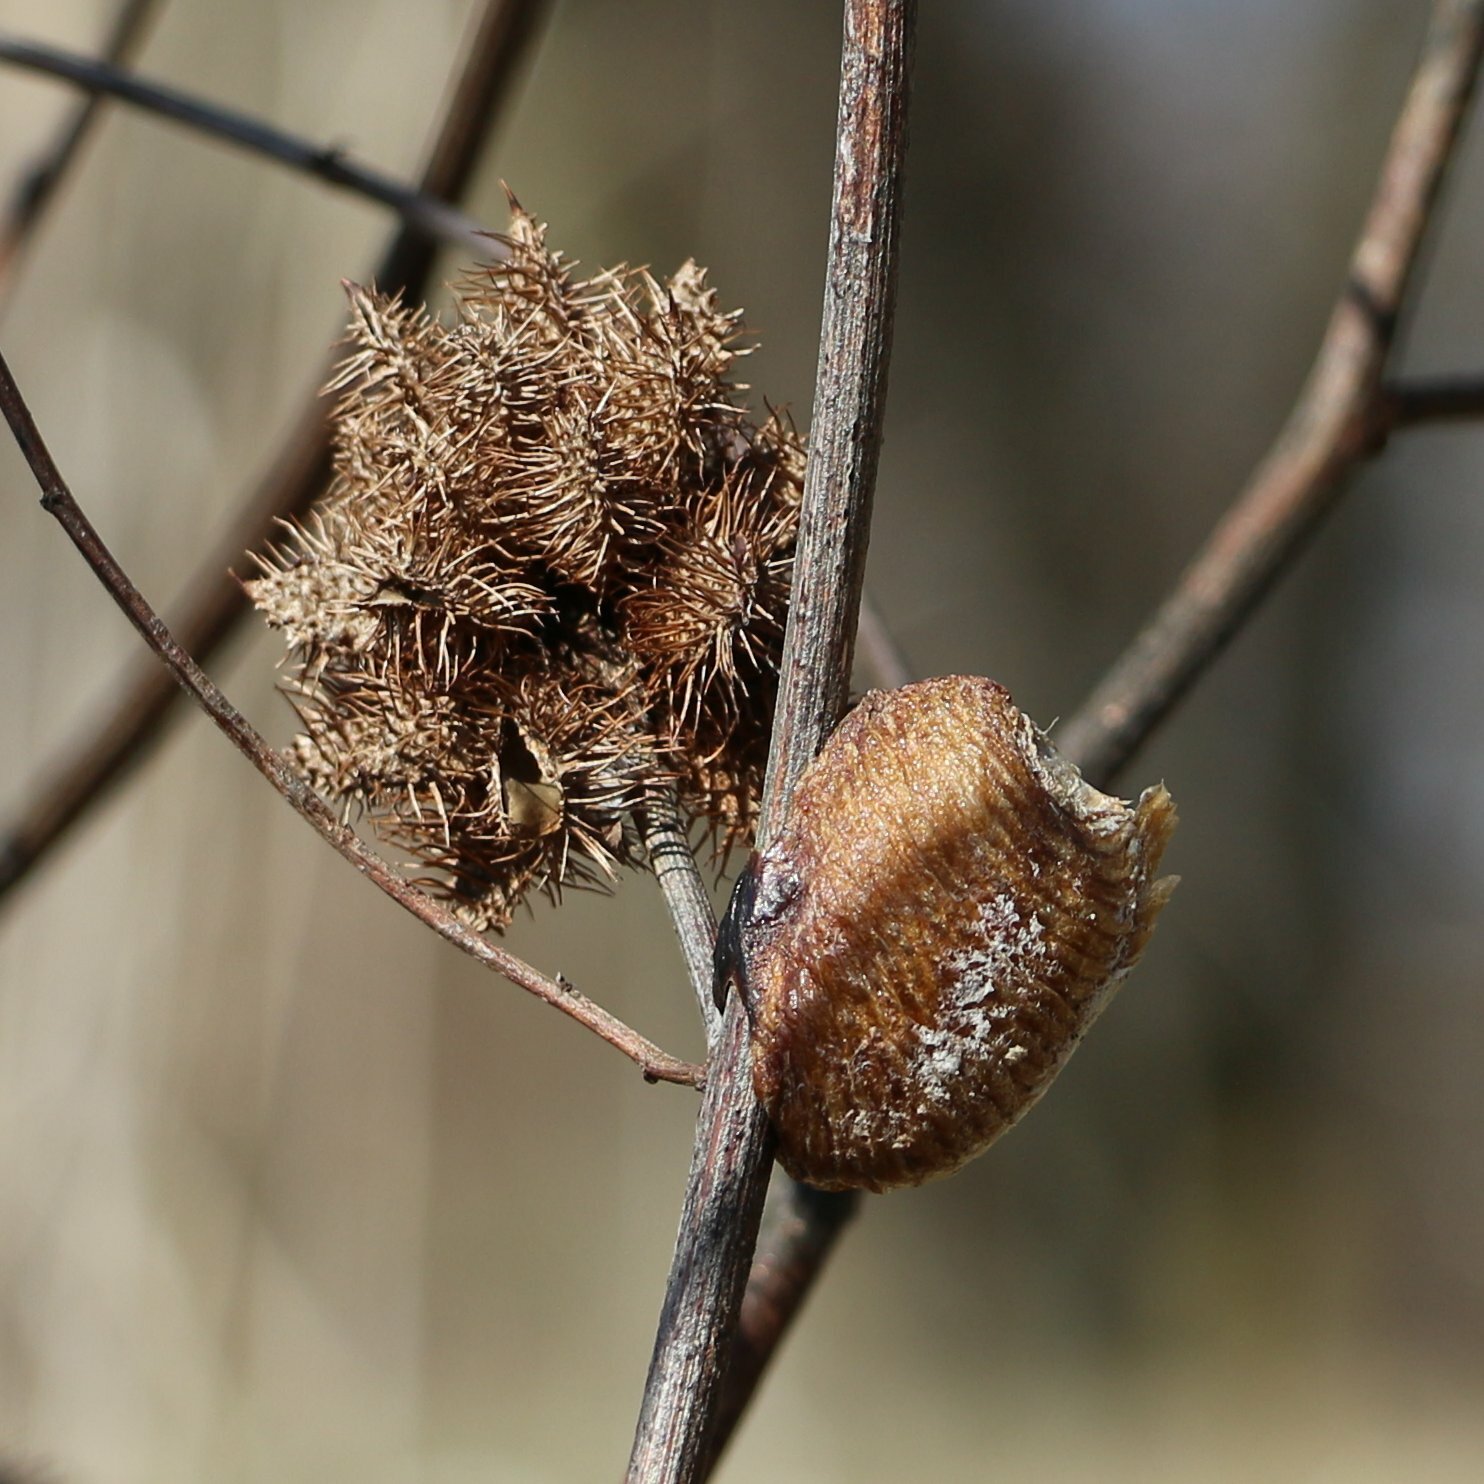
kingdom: Plantae
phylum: Tracheophyta
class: Magnoliopsida
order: Fabales
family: Fabaceae
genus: Glycyrrhiza
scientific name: Glycyrrhiza echinata
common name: German liquorice
